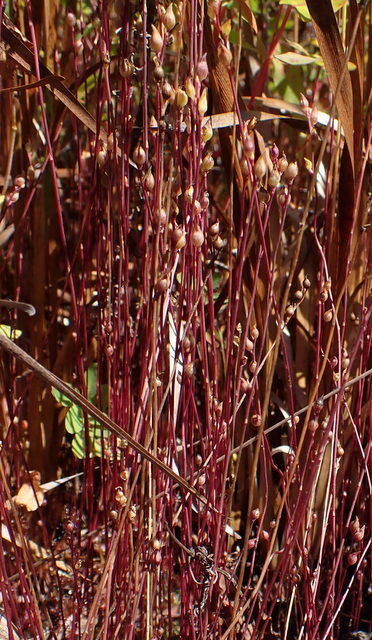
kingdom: Plantae
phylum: Tracheophyta
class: Magnoliopsida
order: Lamiales
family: Lentibulariaceae
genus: Utricularia
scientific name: Utricularia juncea
